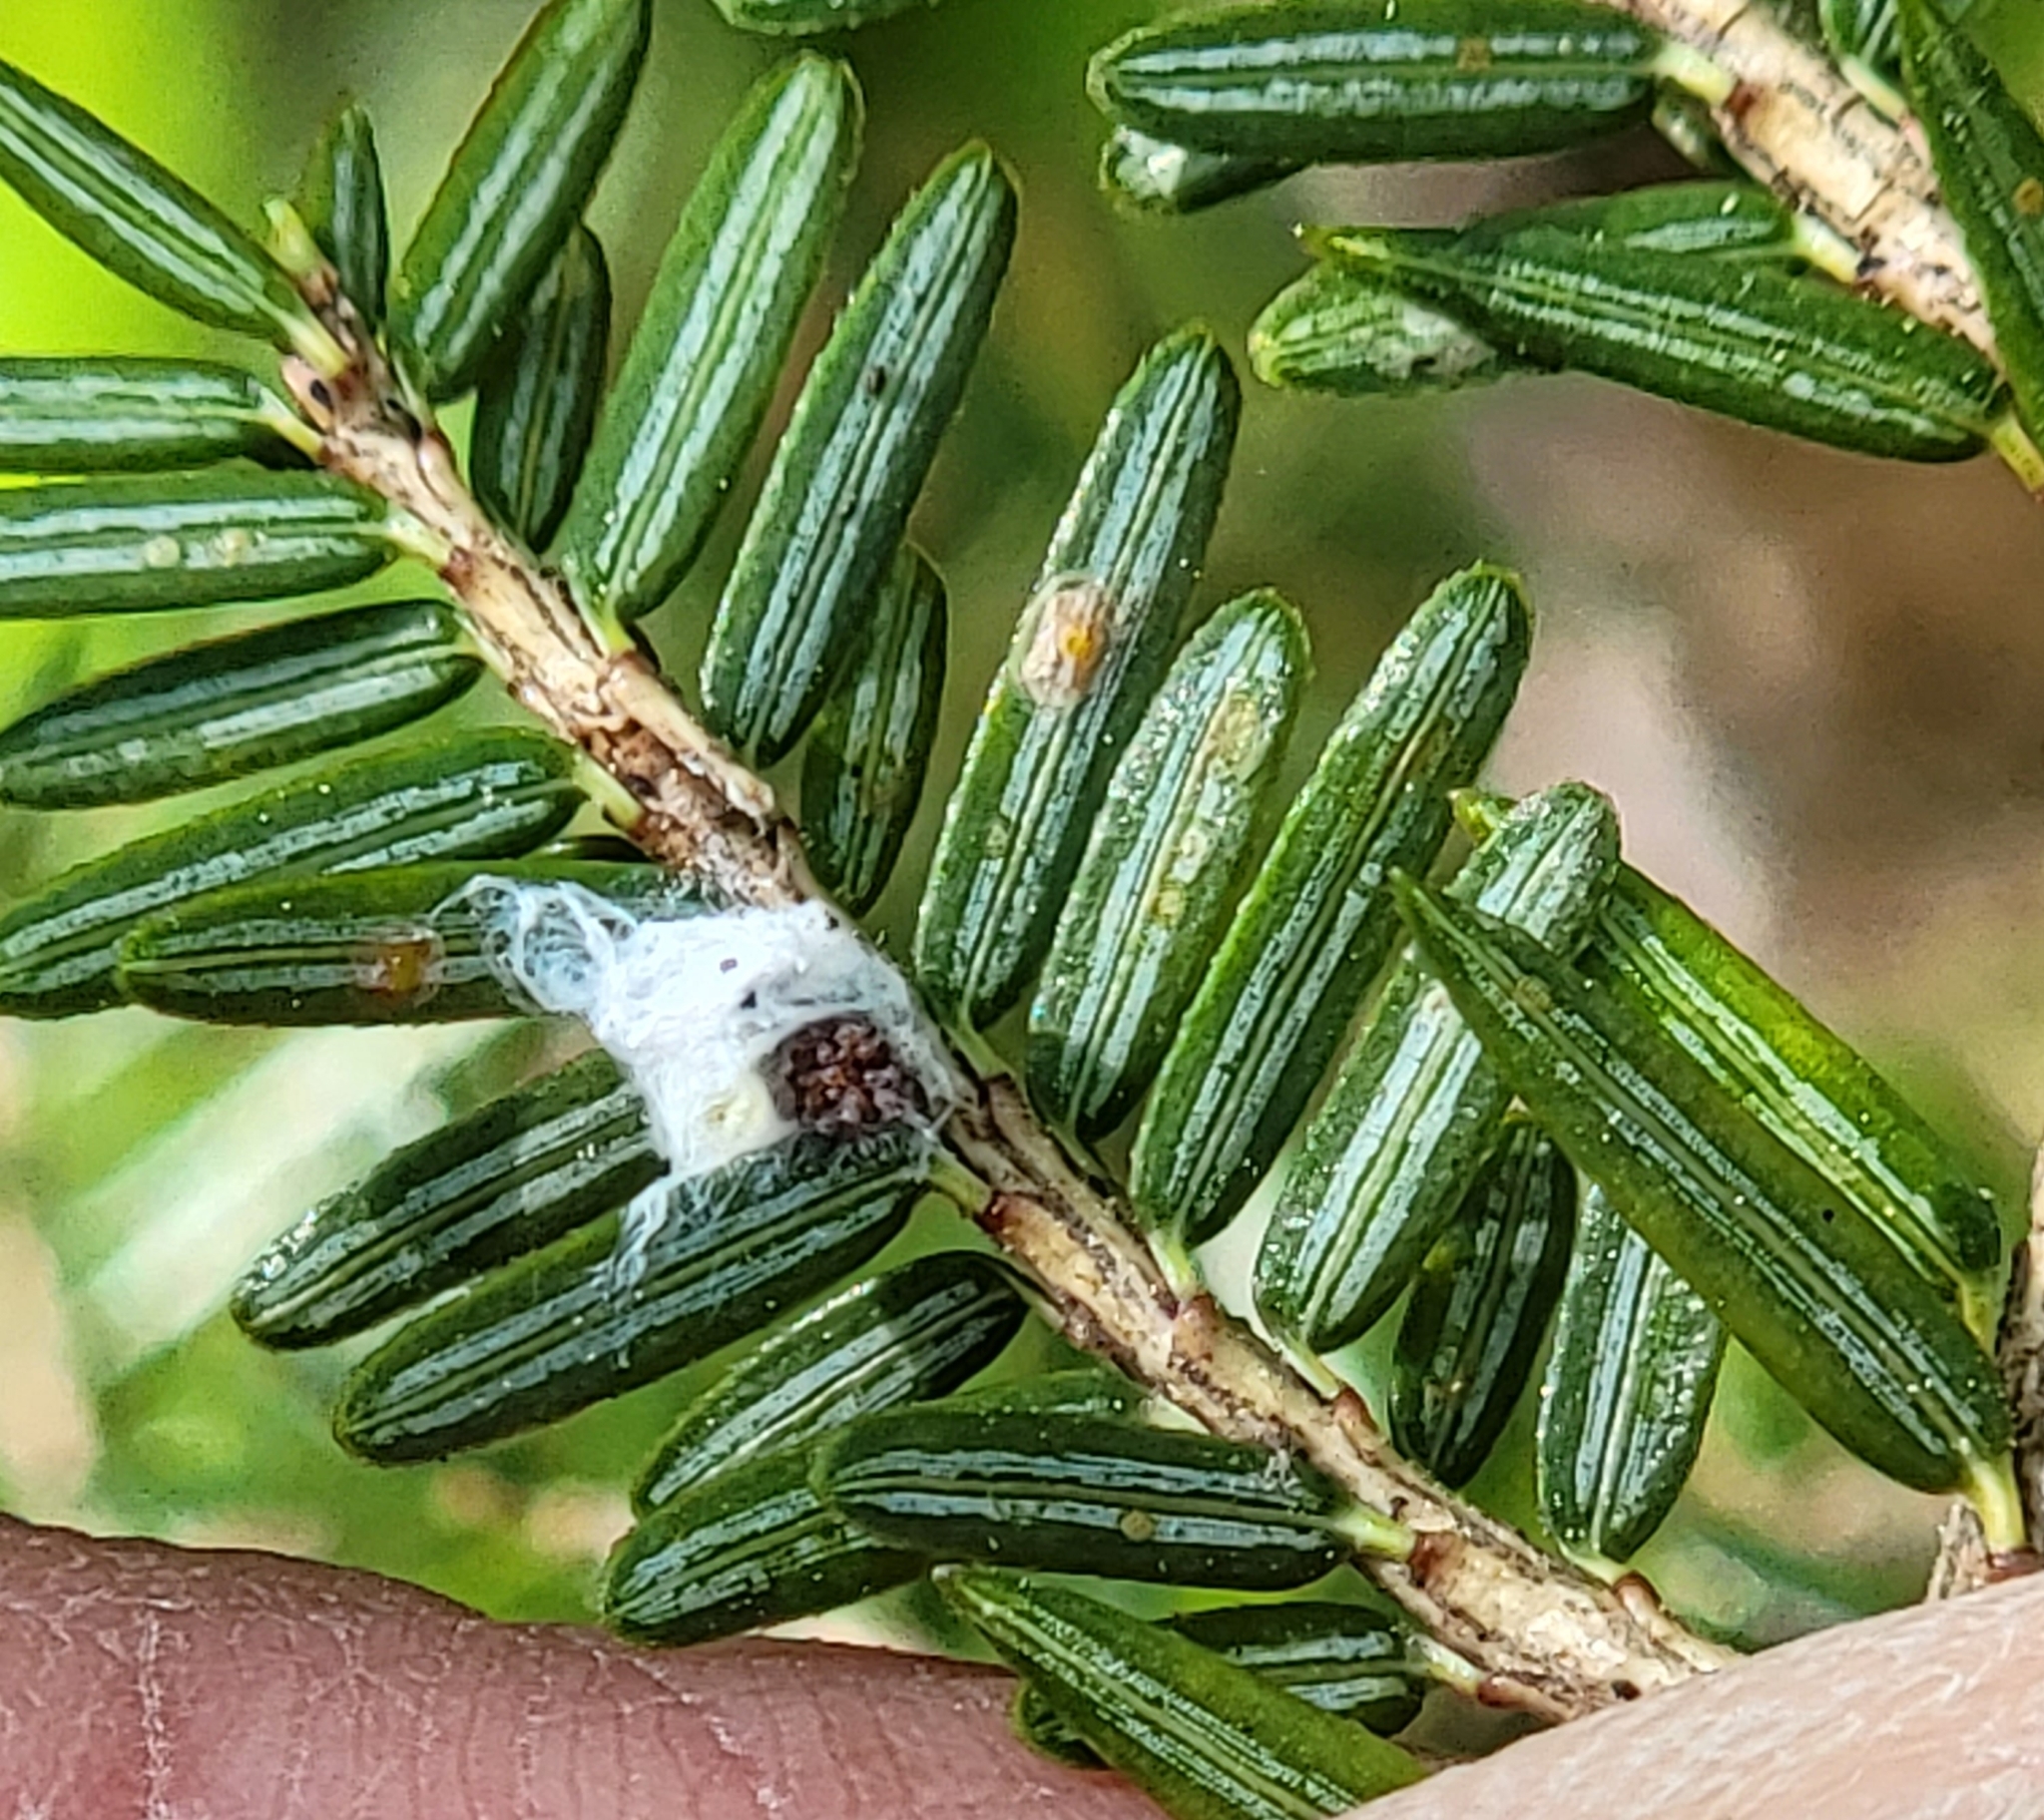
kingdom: Animalia
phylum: Arthropoda
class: Insecta
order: Hemiptera
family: Adelgidae
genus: Adelges
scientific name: Adelges tsugae
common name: Hemlock woolly adelgid
